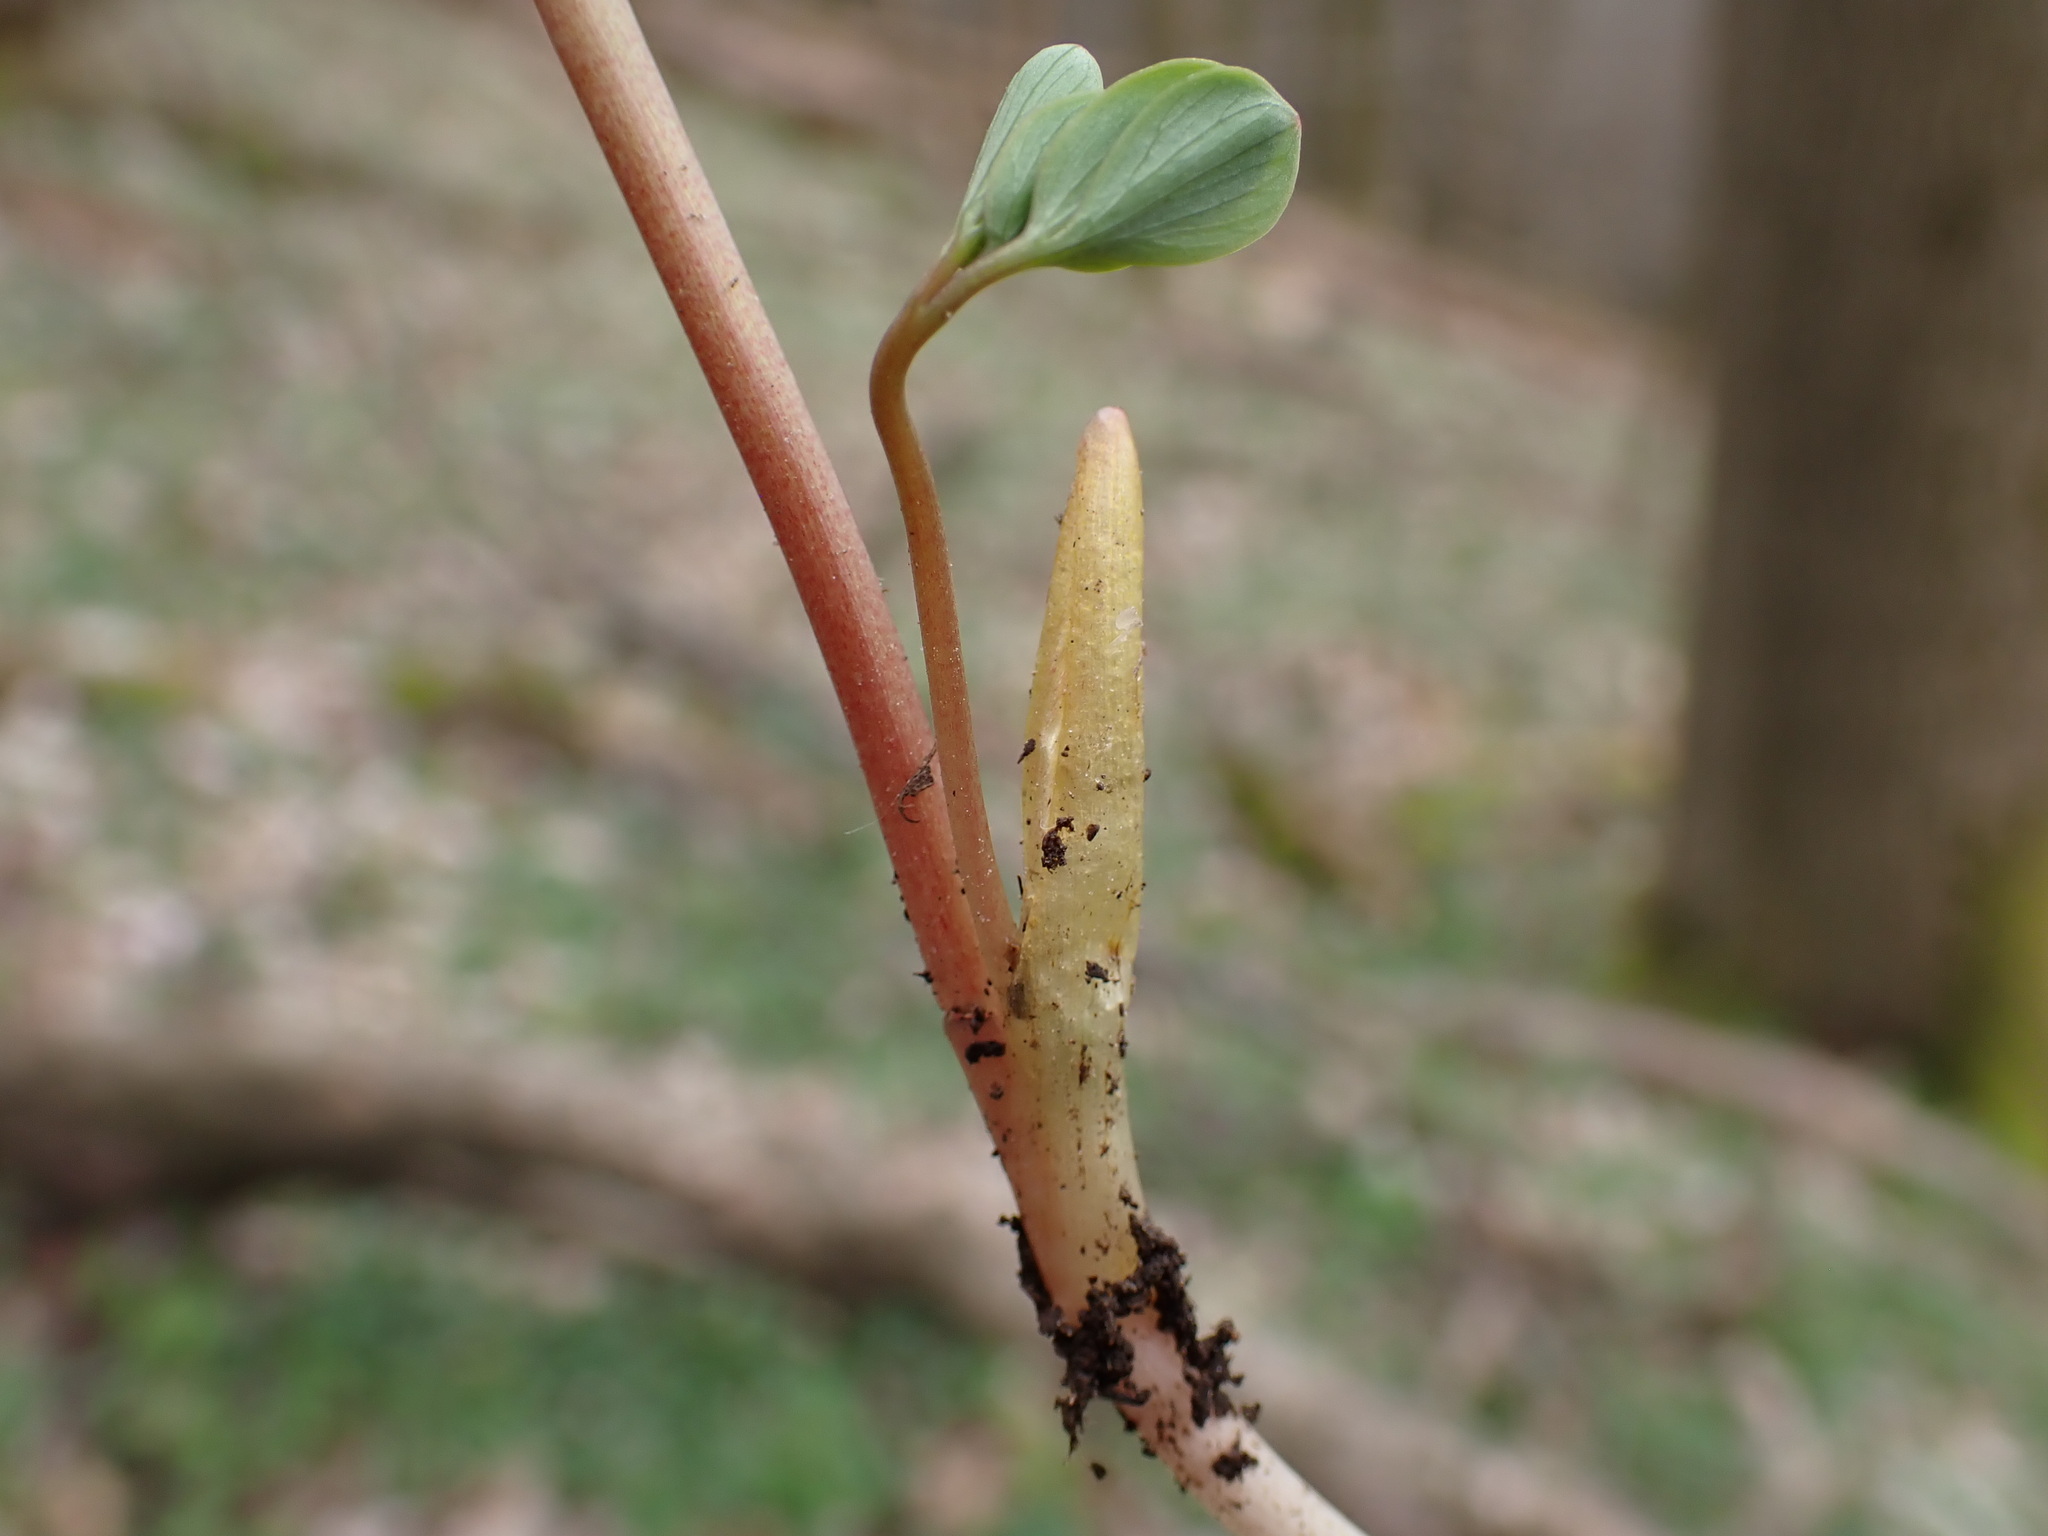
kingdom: Plantae
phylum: Tracheophyta
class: Magnoliopsida
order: Ranunculales
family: Papaveraceae
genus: Corydalis
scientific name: Corydalis pumila
